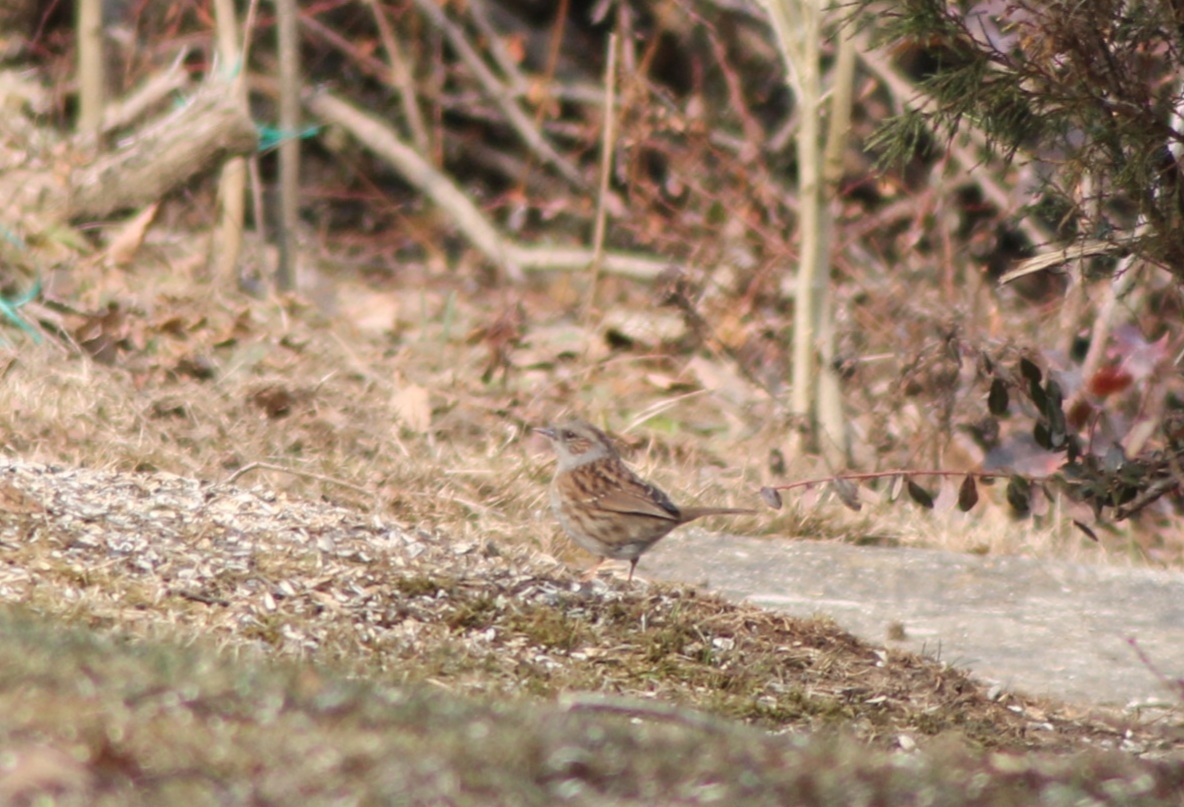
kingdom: Animalia
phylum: Chordata
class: Aves
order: Passeriformes
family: Prunellidae
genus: Prunella
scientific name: Prunella modularis
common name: Dunnock
